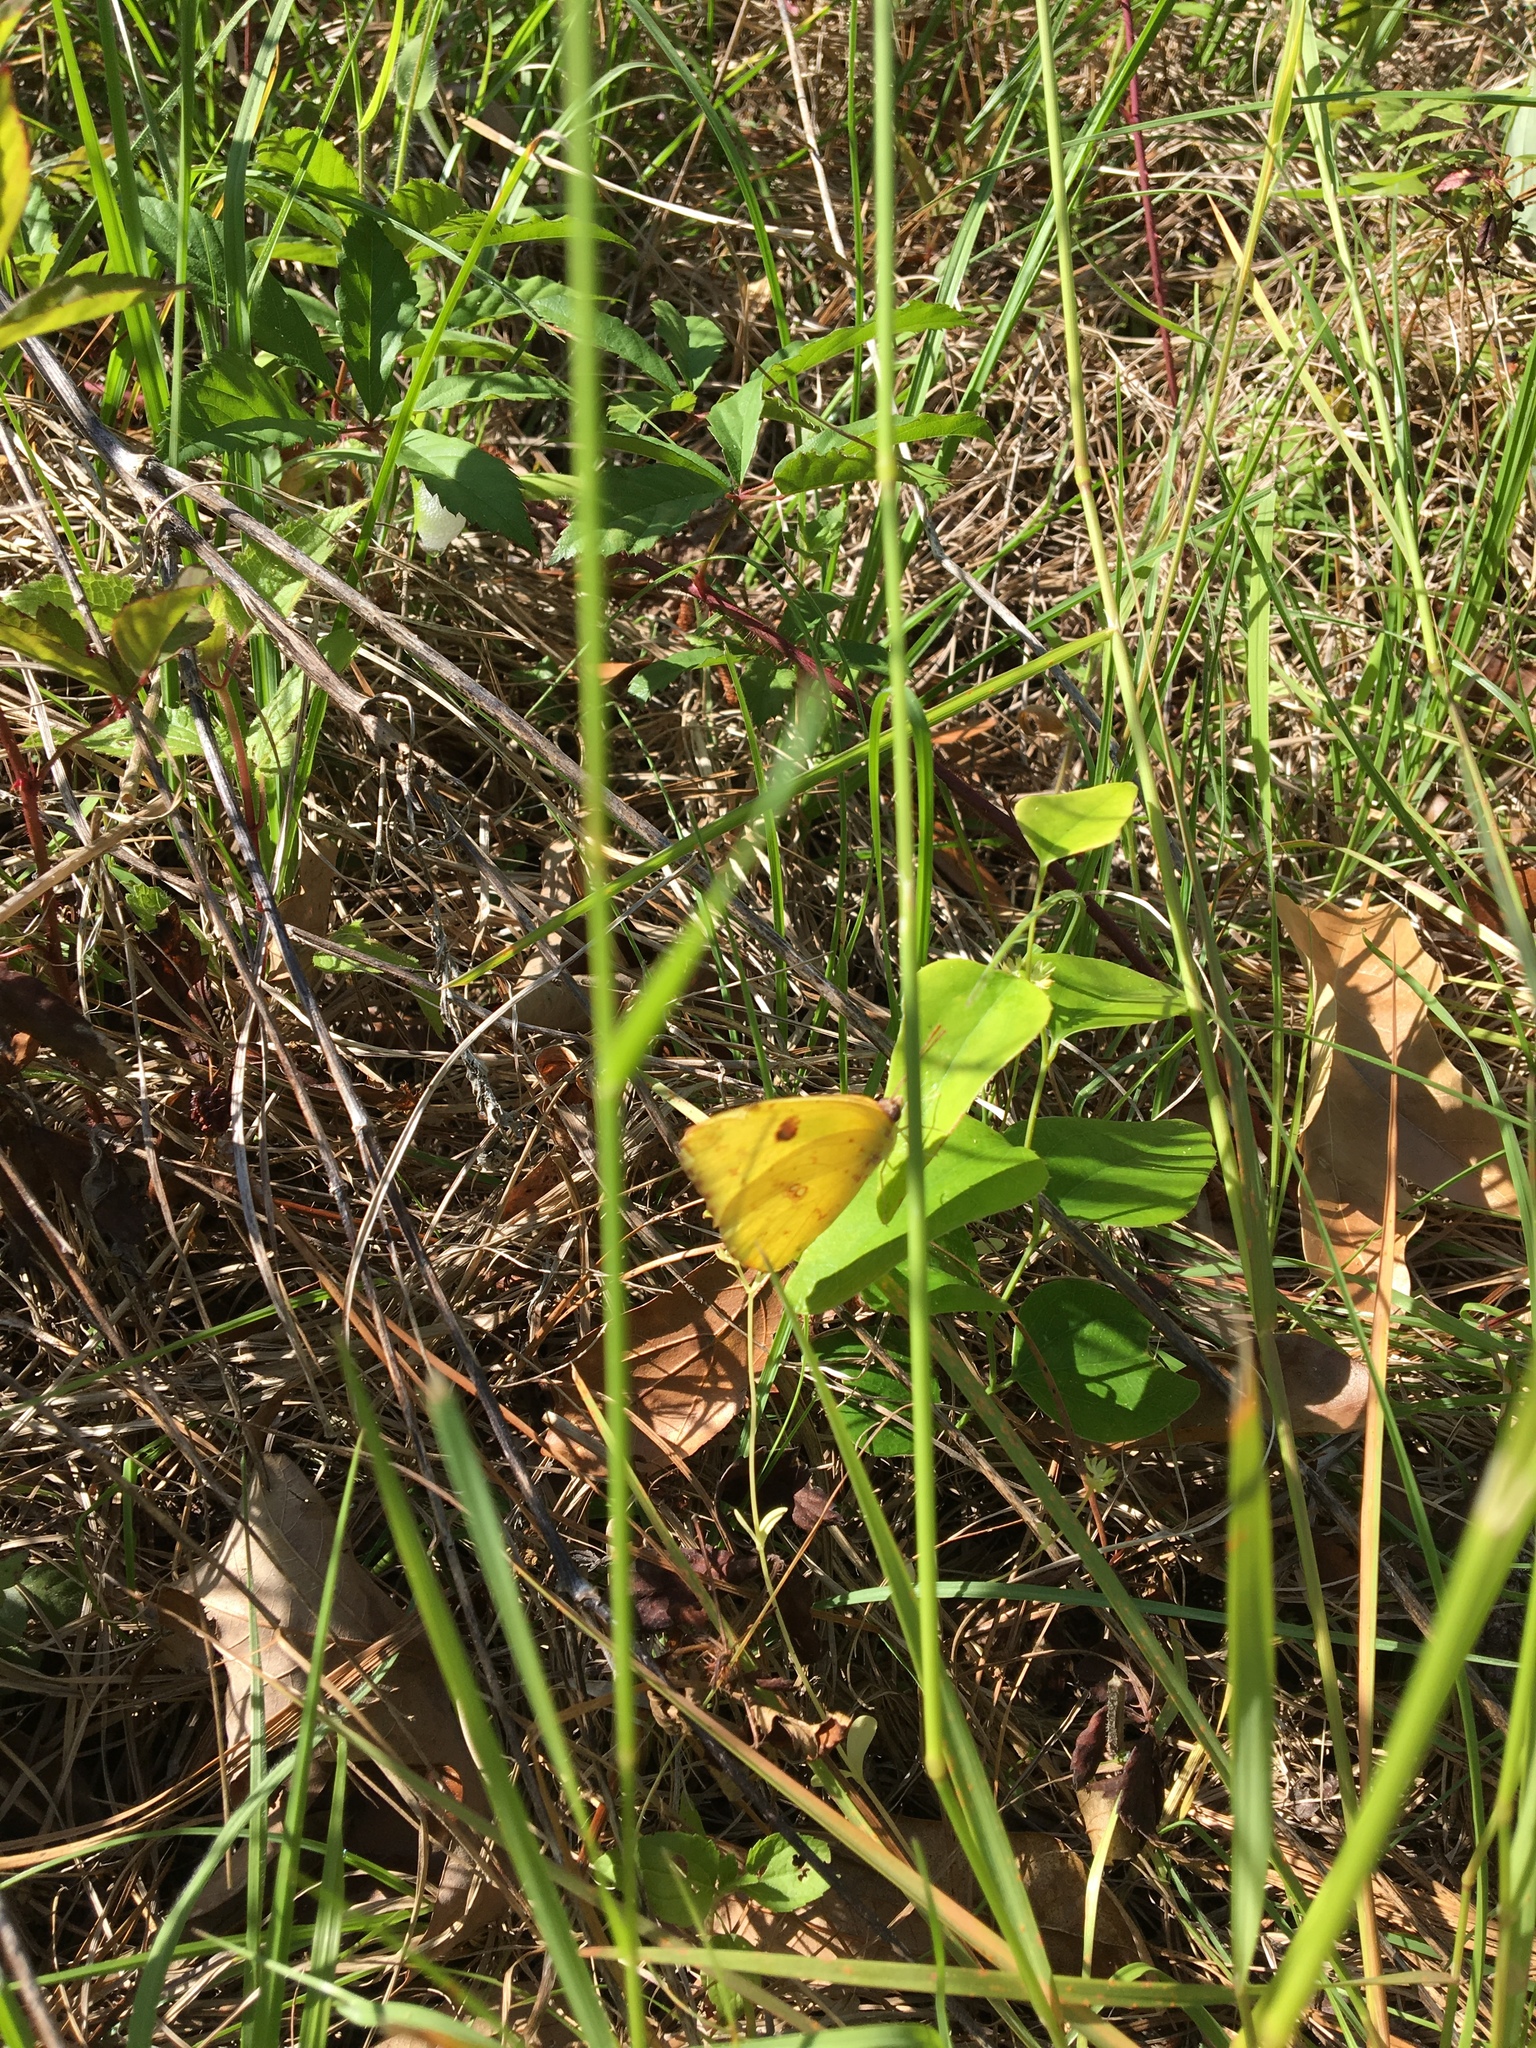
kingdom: Animalia
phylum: Arthropoda
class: Insecta
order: Lepidoptera
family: Pieridae
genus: Phoebis
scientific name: Phoebis sennae
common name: Cloudless sulphur
